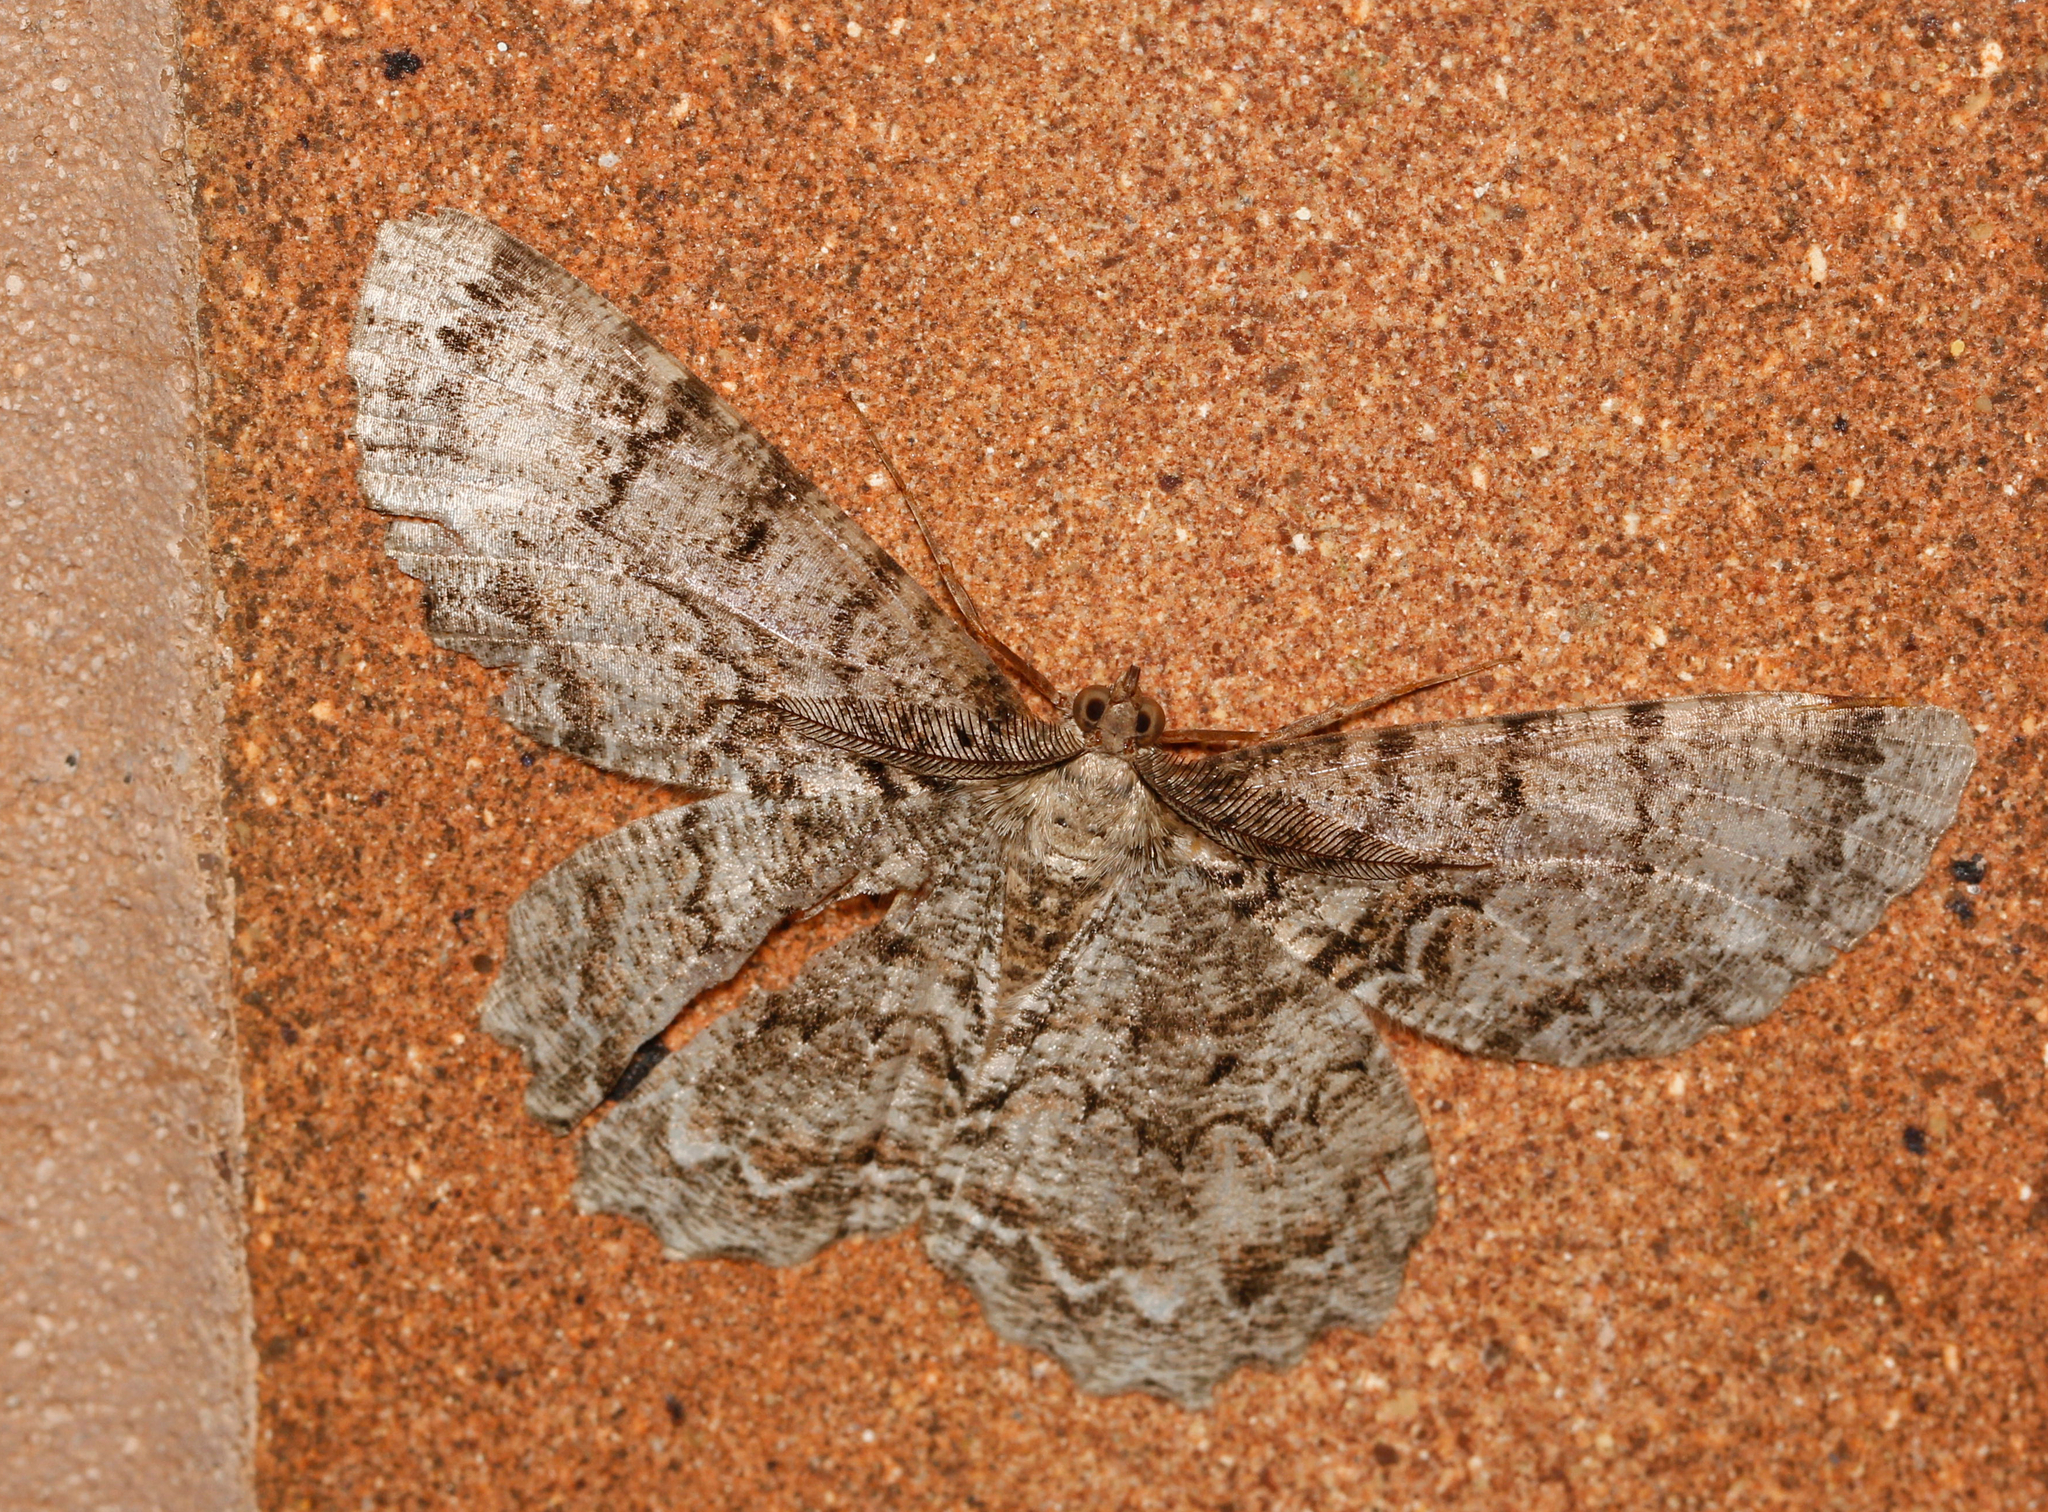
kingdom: Animalia
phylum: Arthropoda
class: Insecta
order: Lepidoptera
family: Geometridae
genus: Epimecis
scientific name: Epimecis hortaria
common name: Tulip-tree beauty
